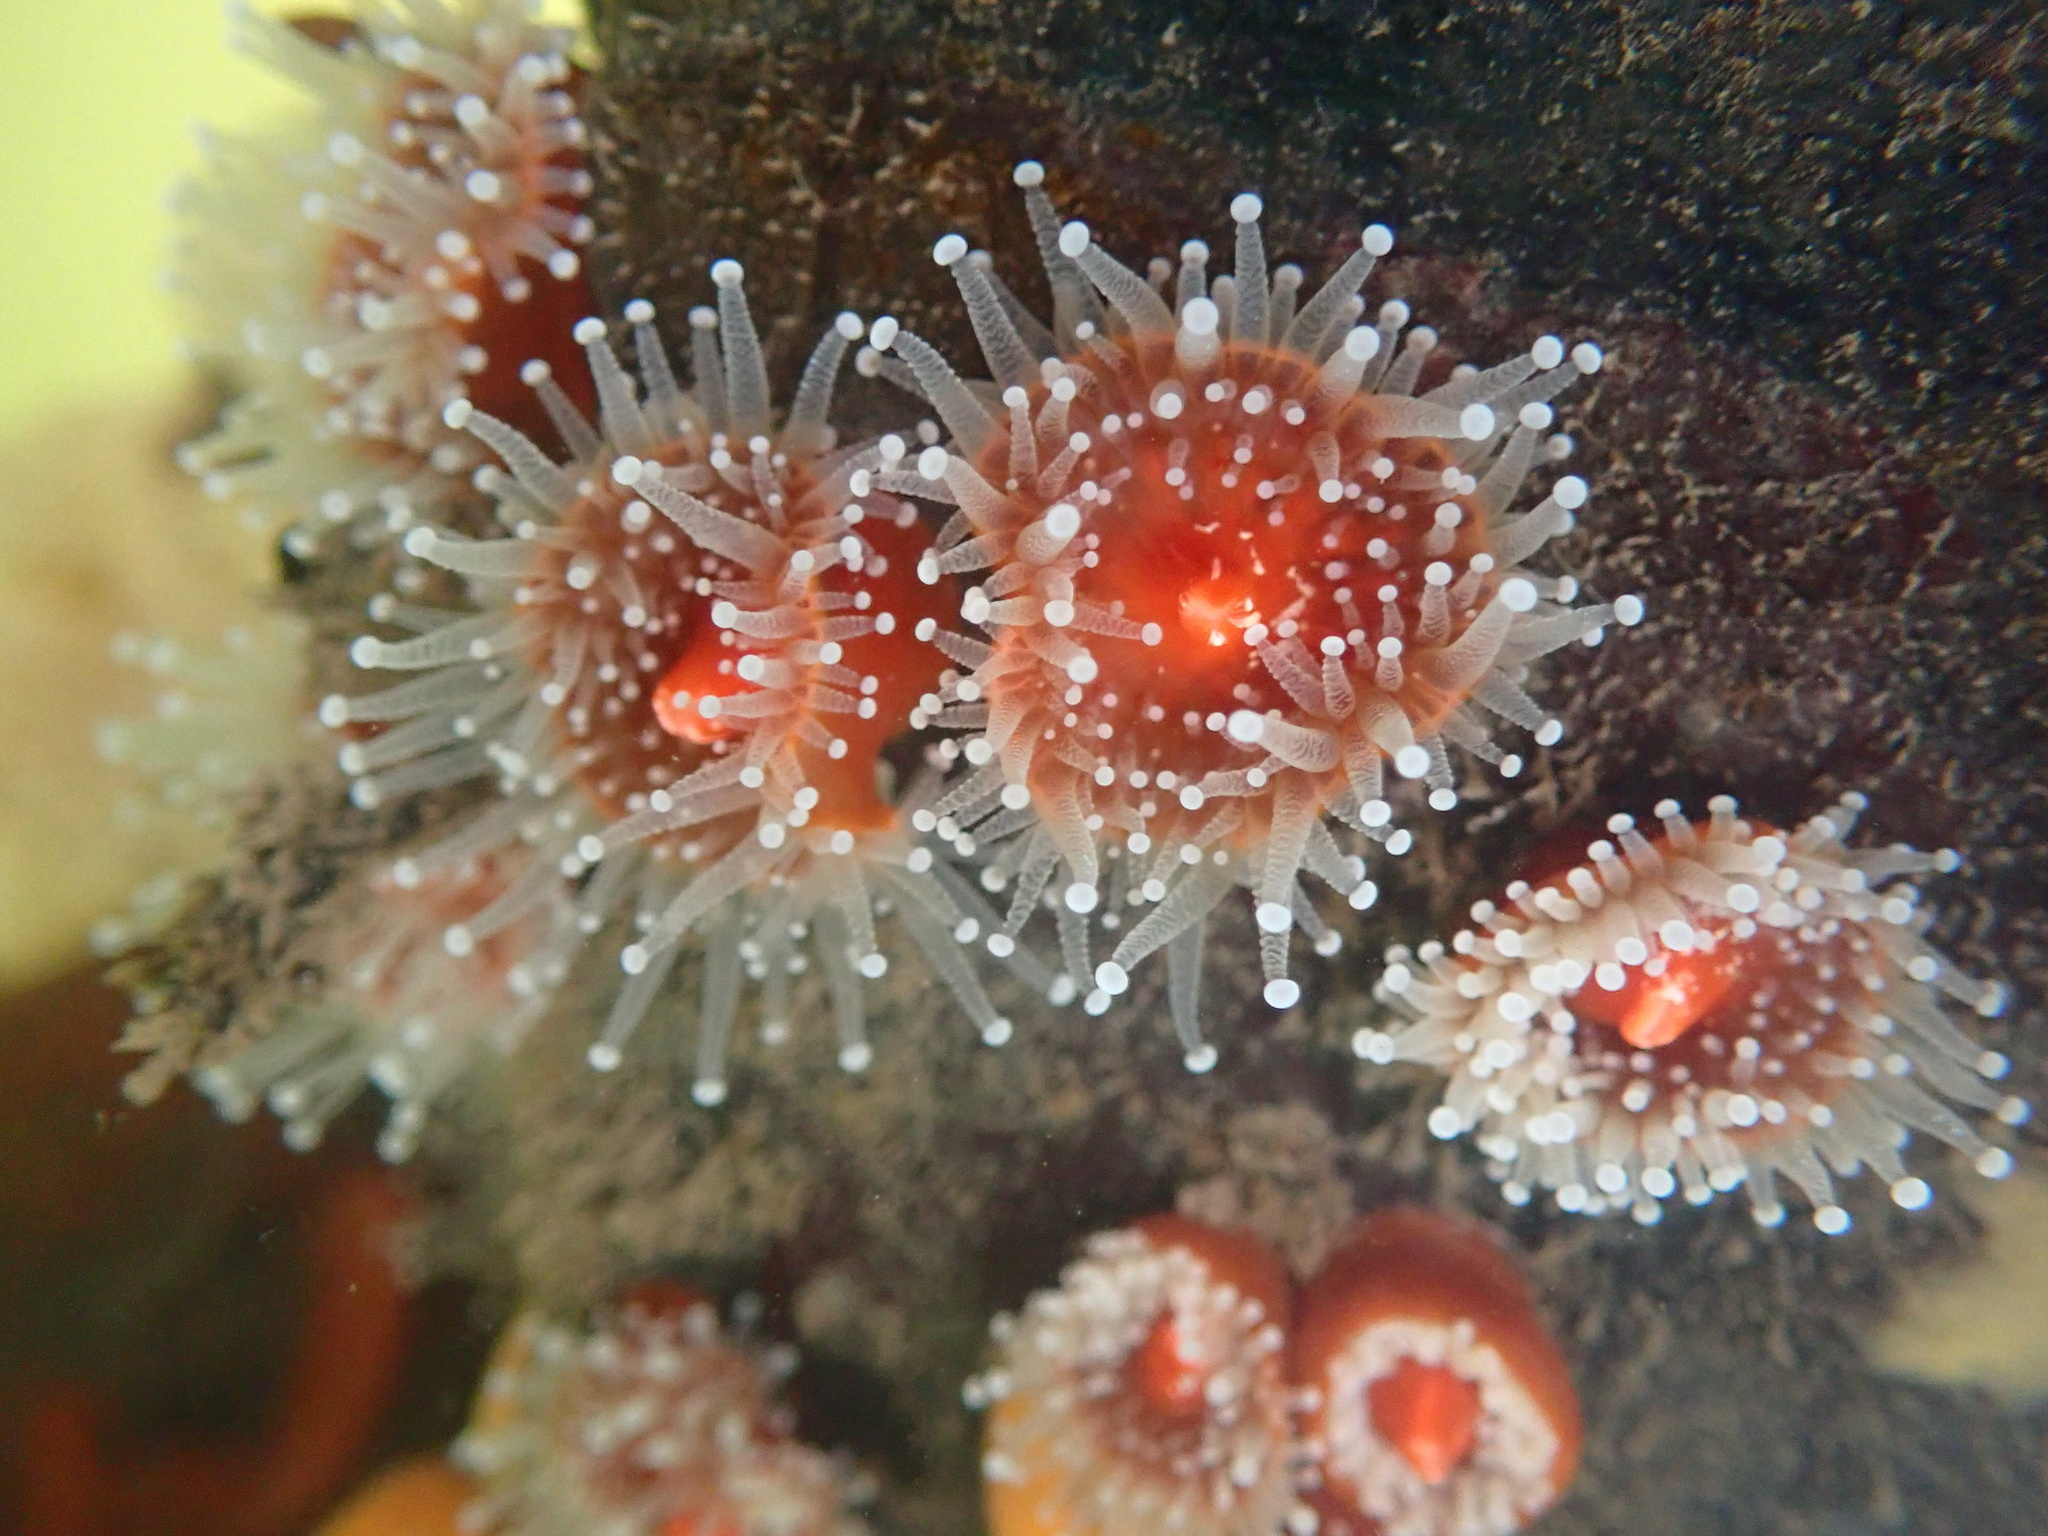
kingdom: Animalia
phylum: Cnidaria
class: Anthozoa
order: Corallimorpharia
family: Corallimorphidae
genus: Corynactis
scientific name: Corynactis californica
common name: Strawberry corallimorpharian
